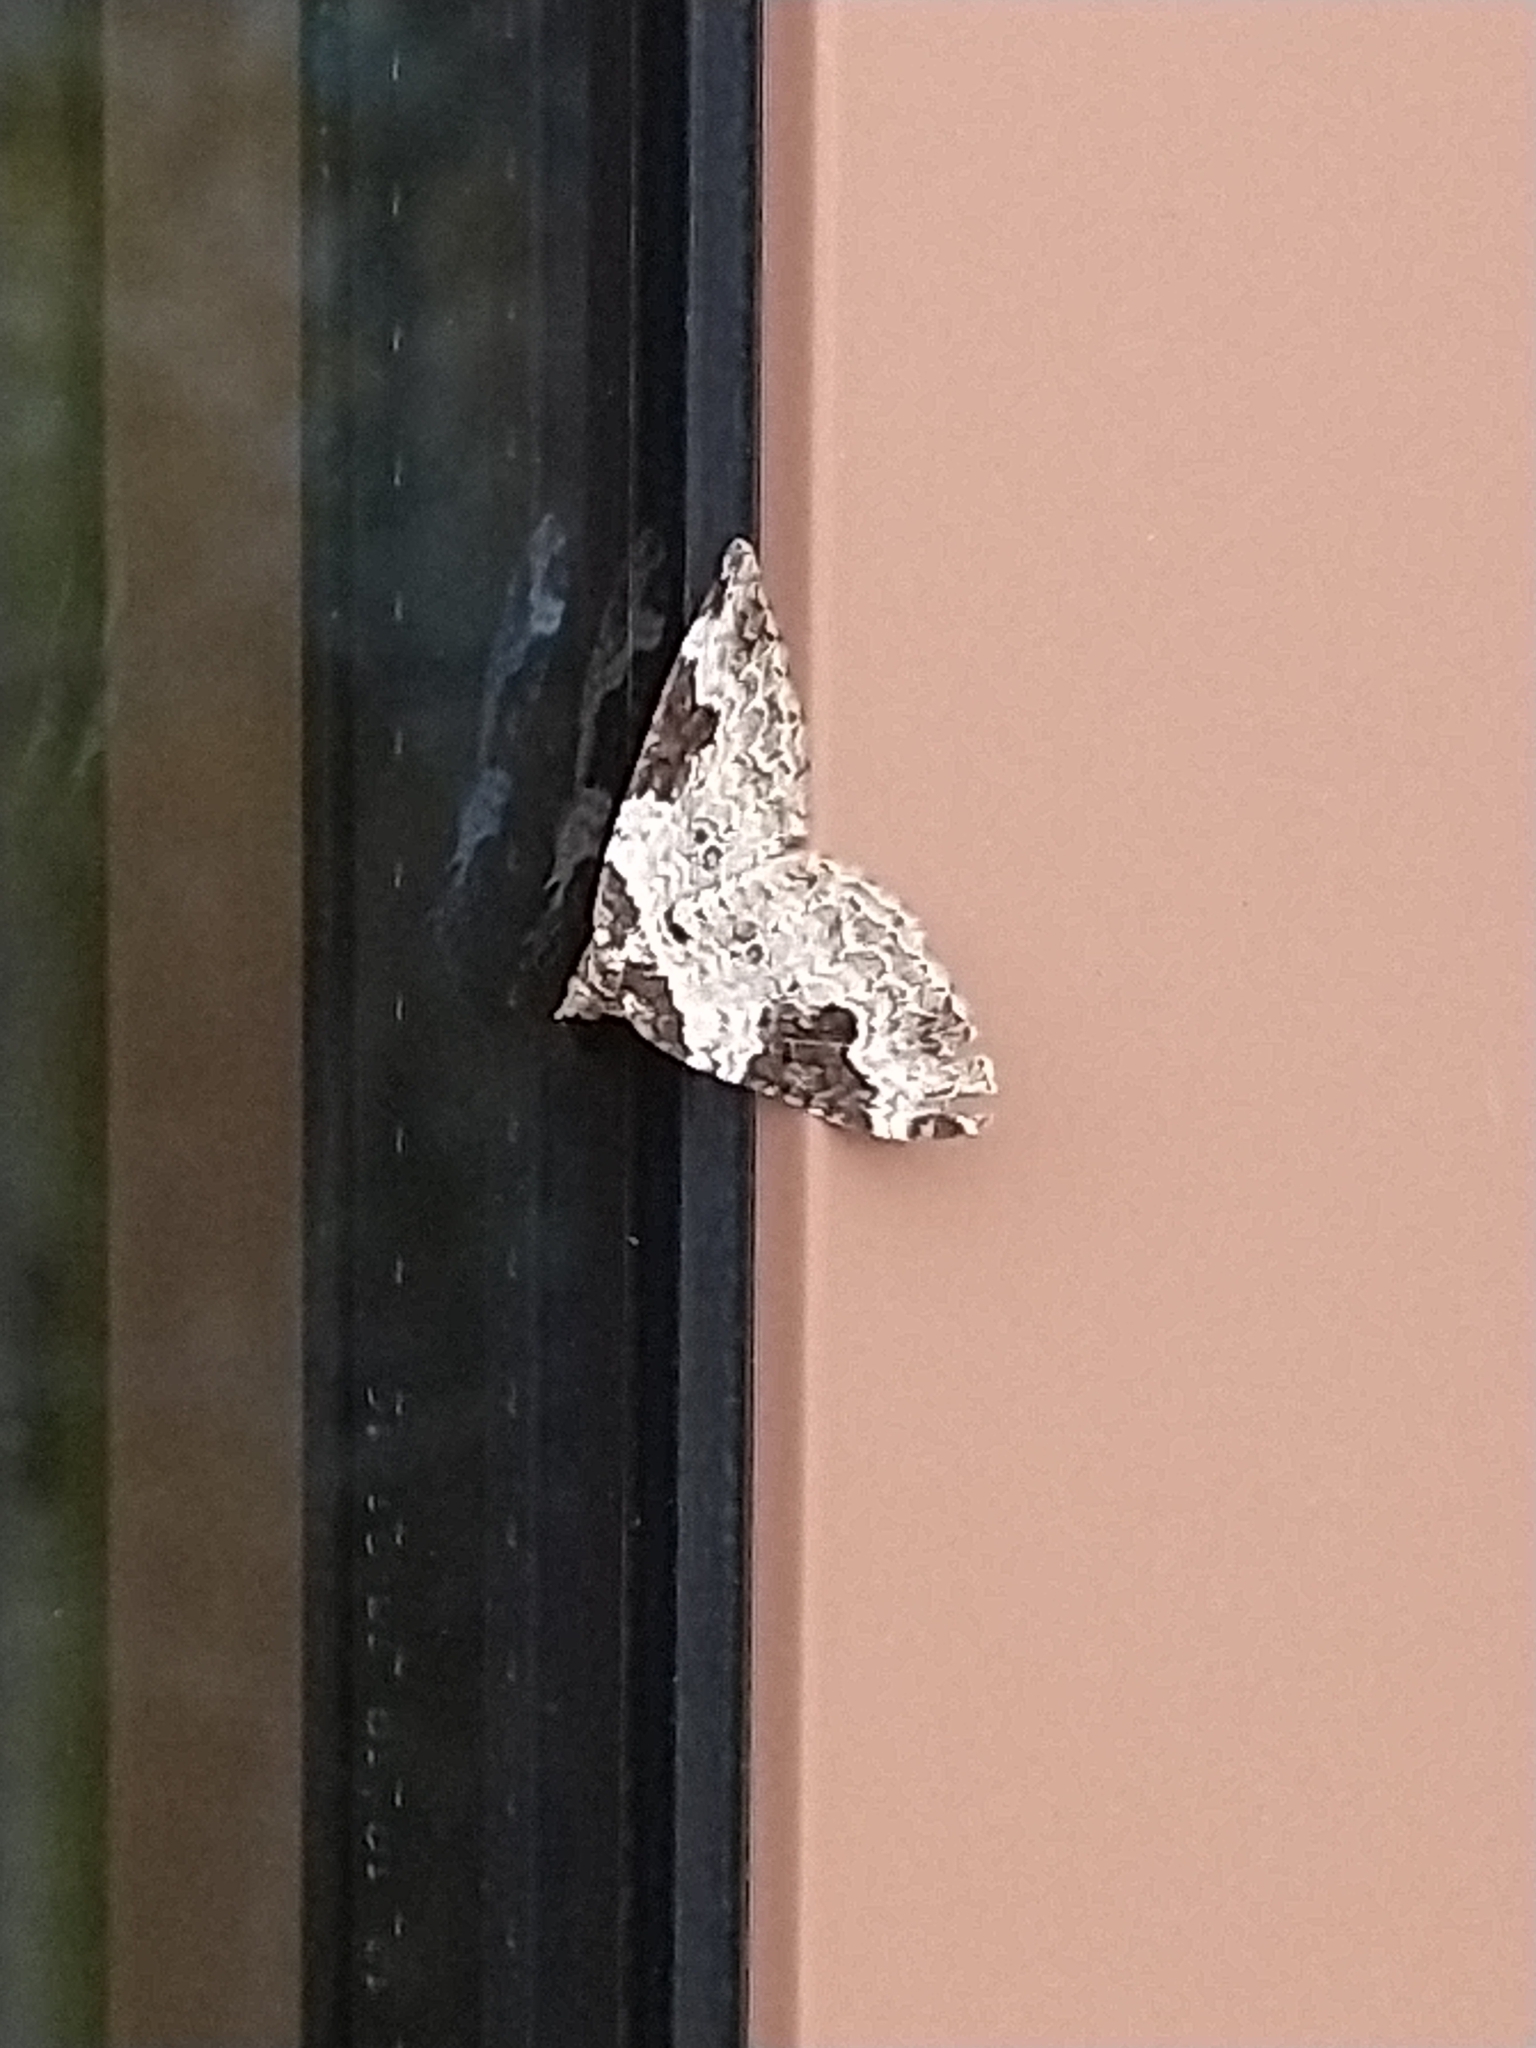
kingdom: Animalia
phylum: Arthropoda
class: Insecta
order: Lepidoptera
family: Geometridae
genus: Xanthorhoe
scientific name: Xanthorhoe fluctuata
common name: Garden carpet
